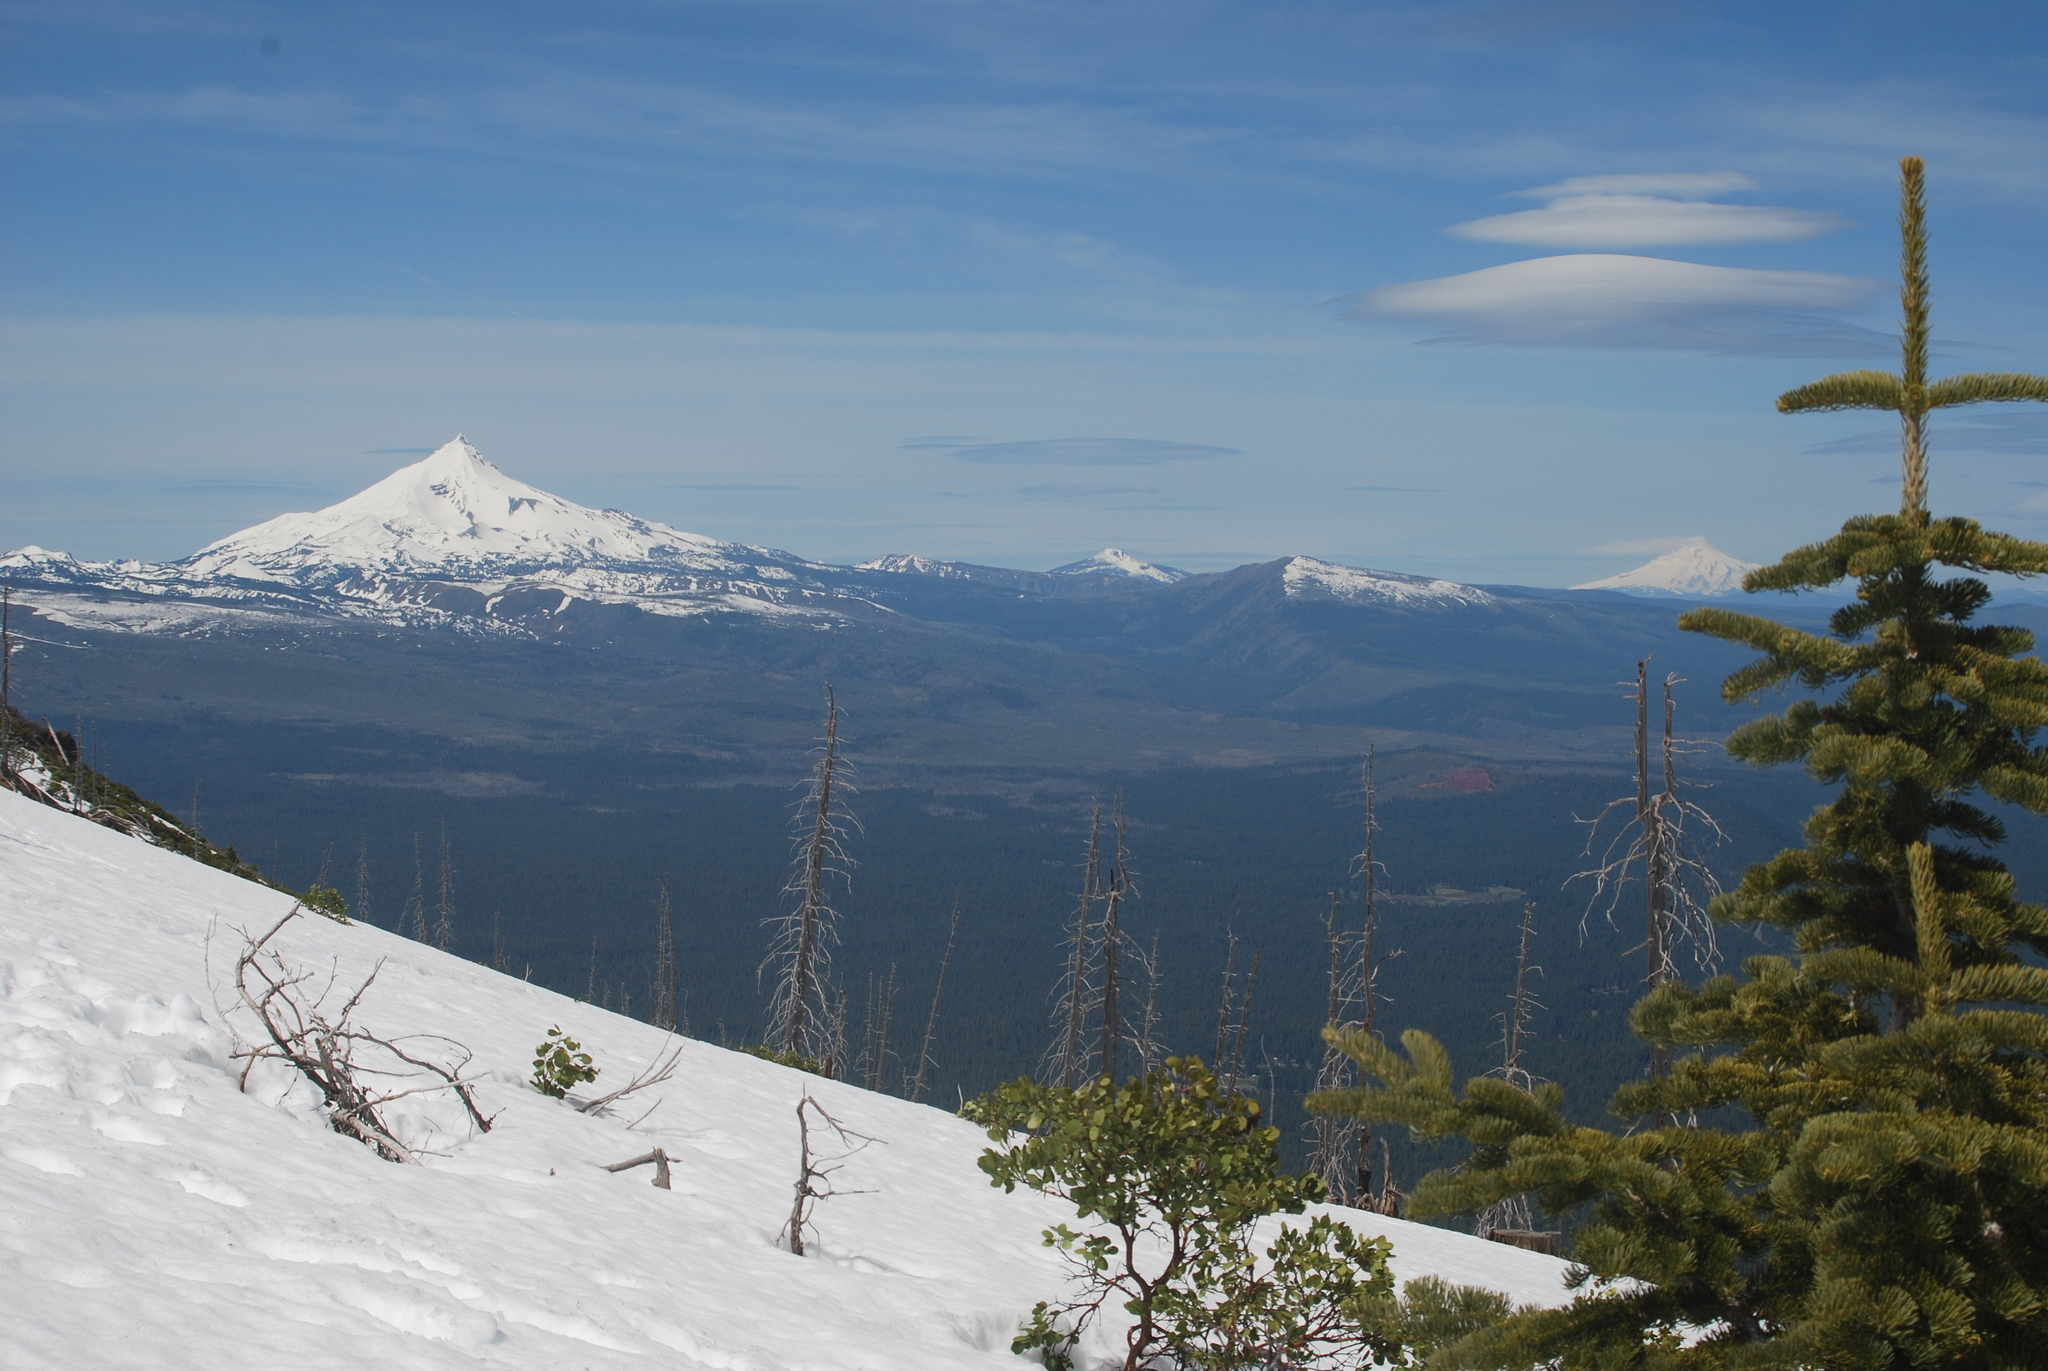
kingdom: Plantae
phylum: Tracheophyta
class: Magnoliopsida
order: Ericales
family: Ericaceae
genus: Arctostaphylos
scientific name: Arctostaphylos patula
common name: Green-leaf manzanita
